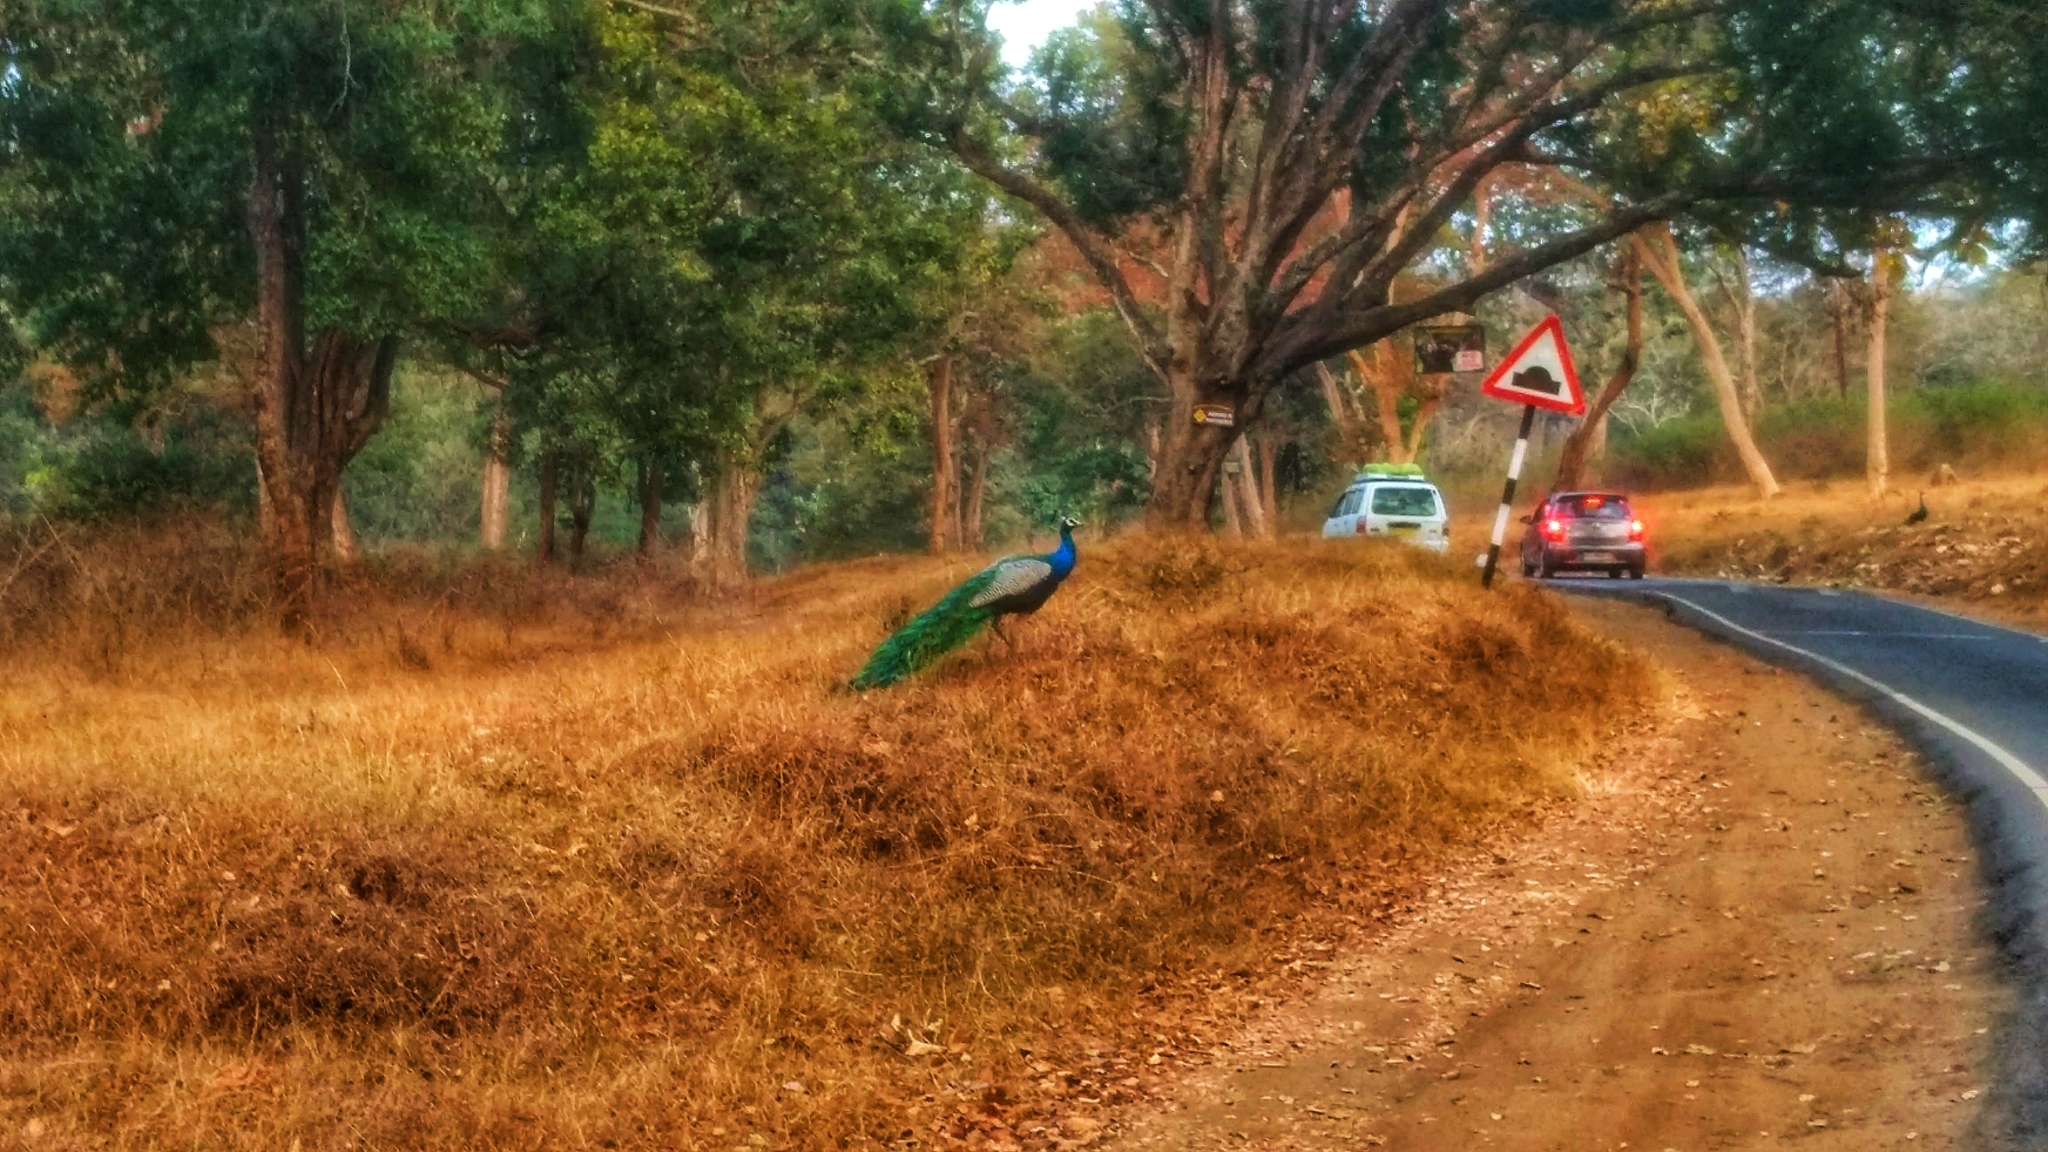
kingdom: Animalia
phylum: Chordata
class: Aves
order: Galliformes
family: Phasianidae
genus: Pavo
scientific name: Pavo cristatus
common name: Indian peafowl
